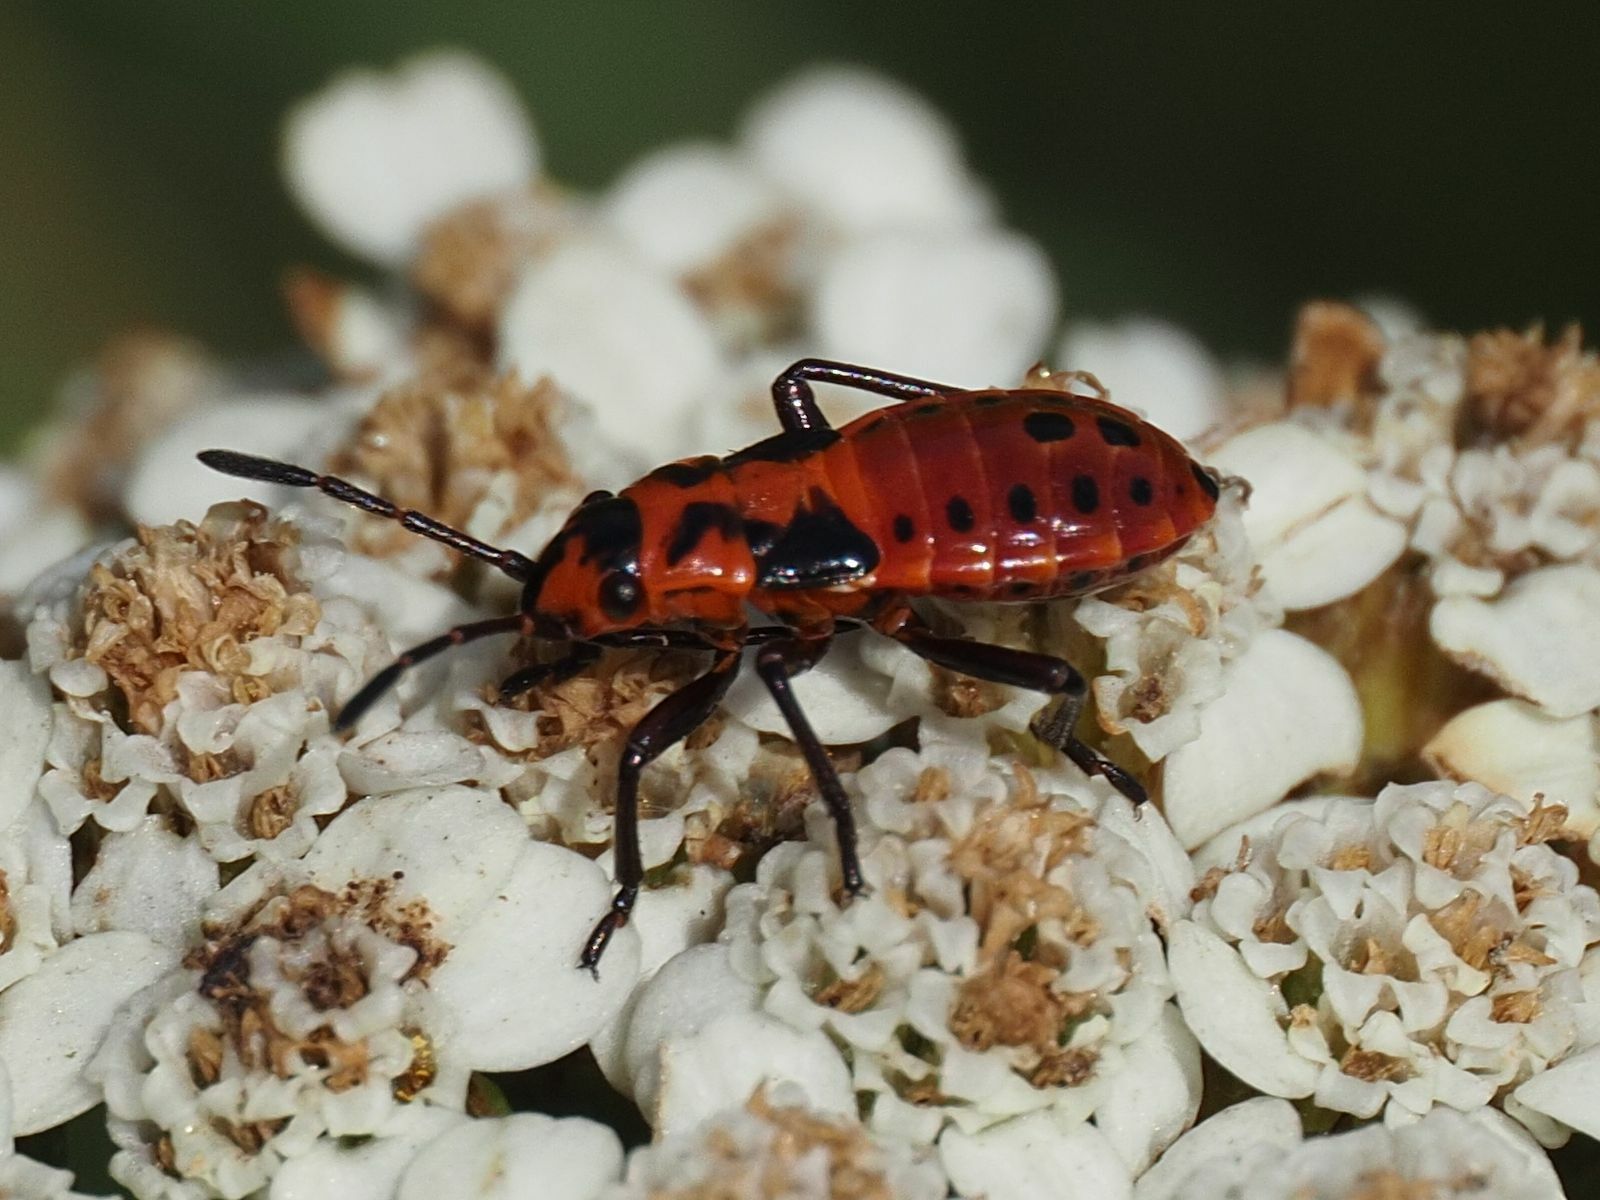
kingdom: Animalia
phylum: Arthropoda
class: Insecta
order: Hemiptera
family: Lygaeidae
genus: Spilostethus
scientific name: Spilostethus saxatilis
